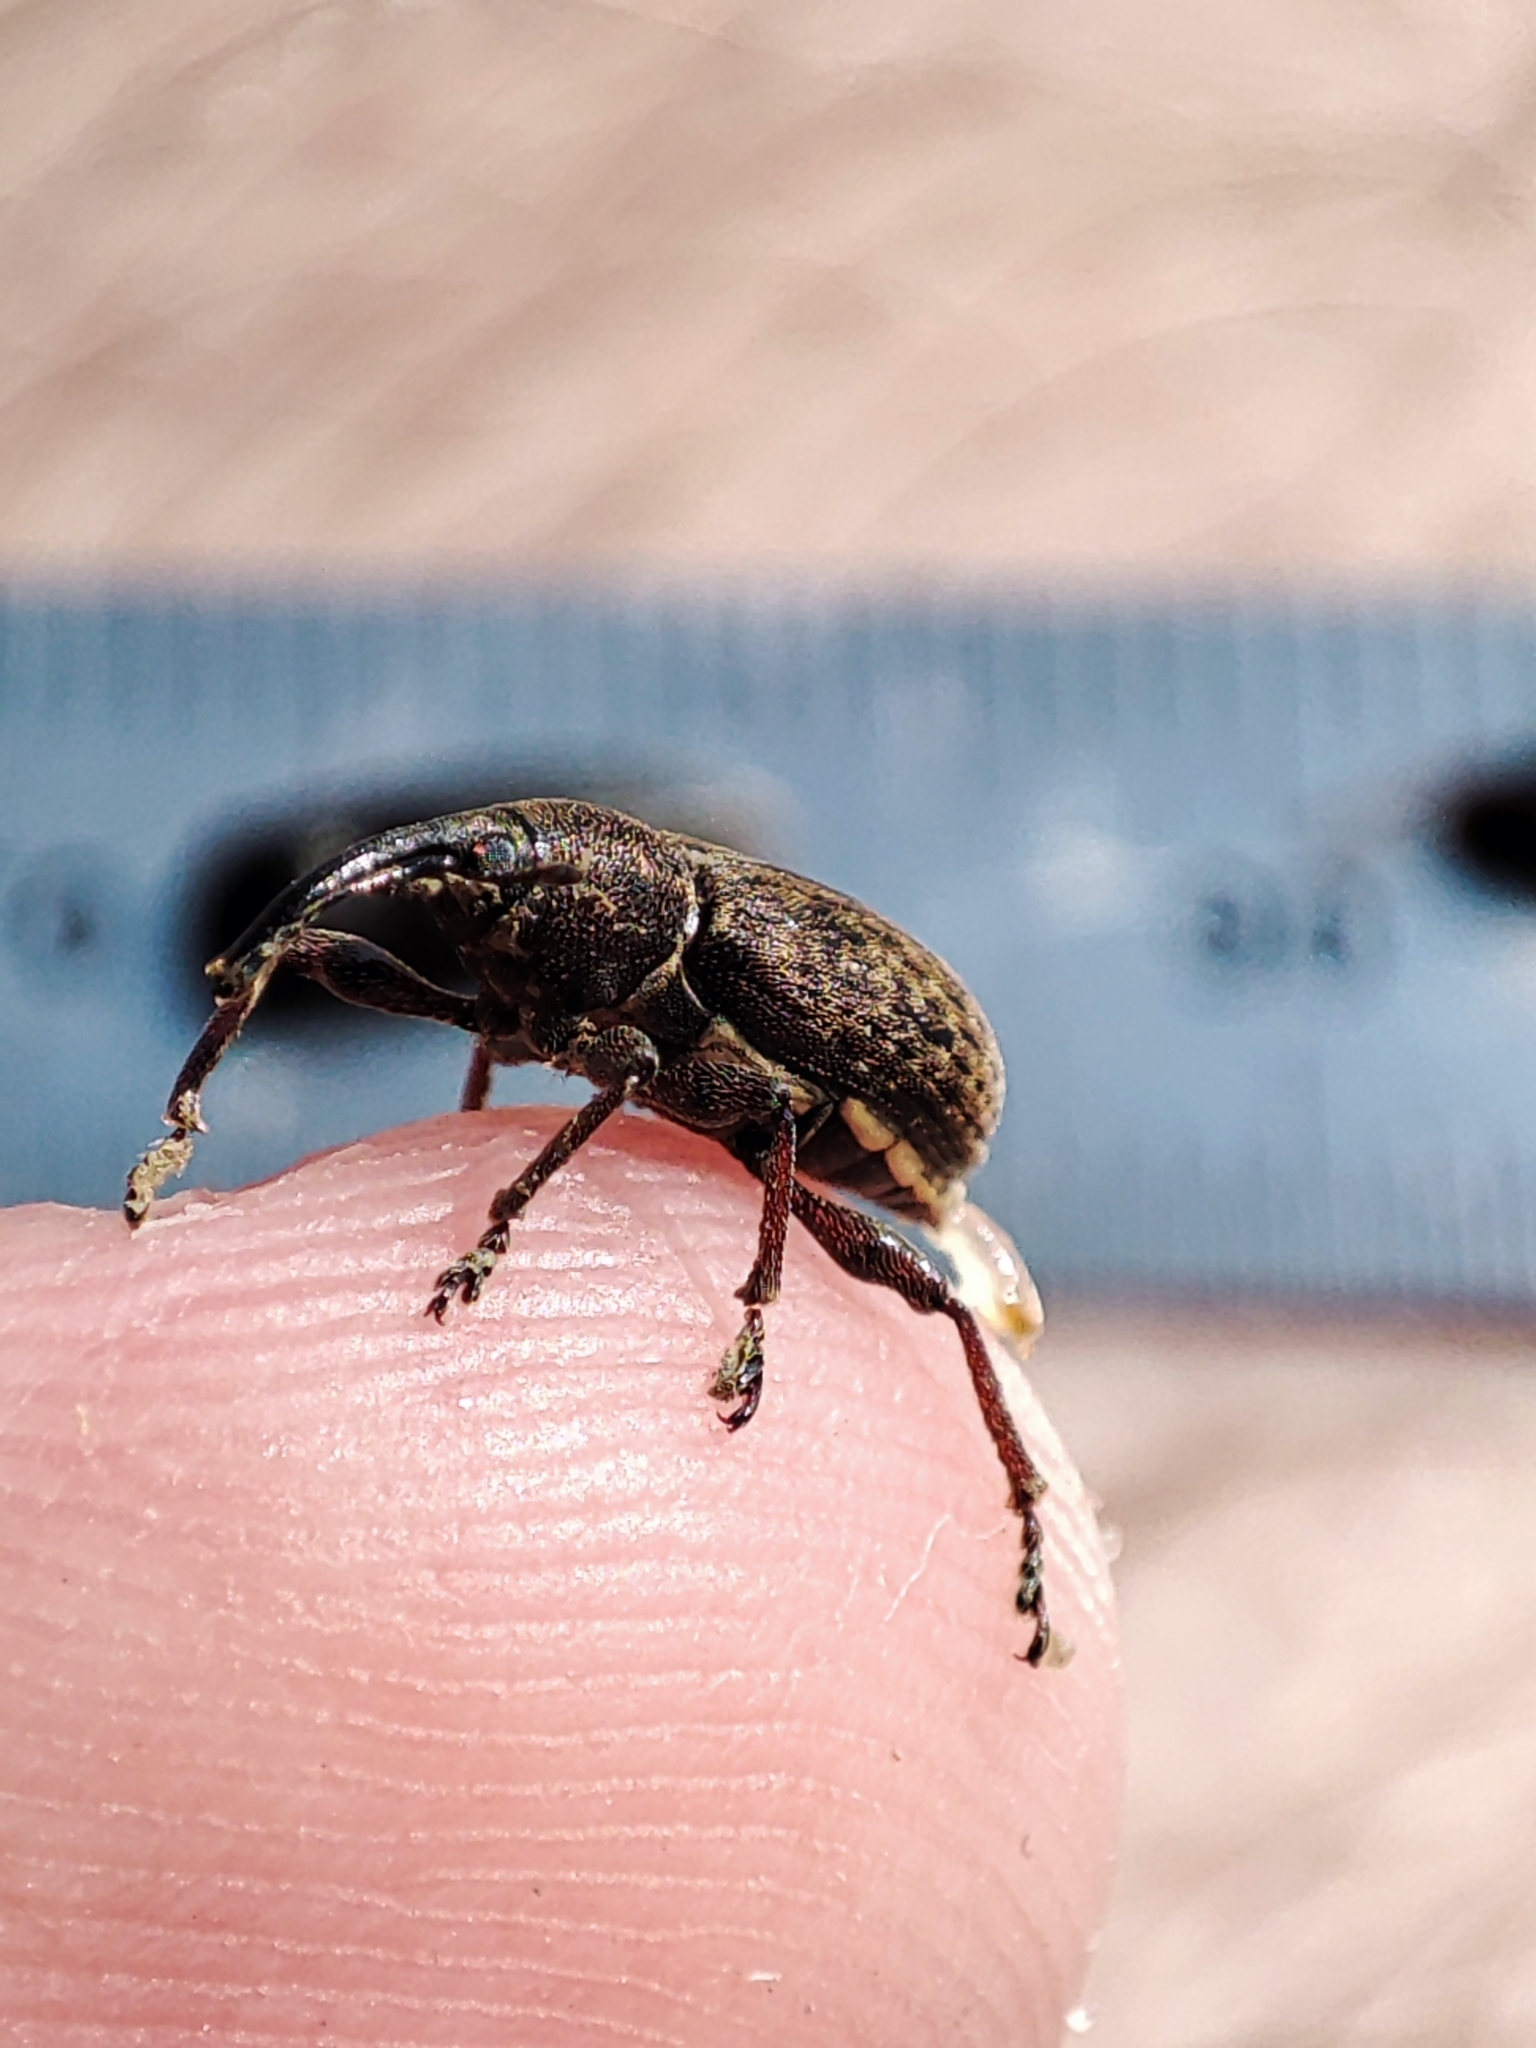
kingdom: Animalia
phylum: Arthropoda
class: Insecta
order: Coleoptera
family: Brachyceridae
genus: Notaris
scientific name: Notaris scirpi
